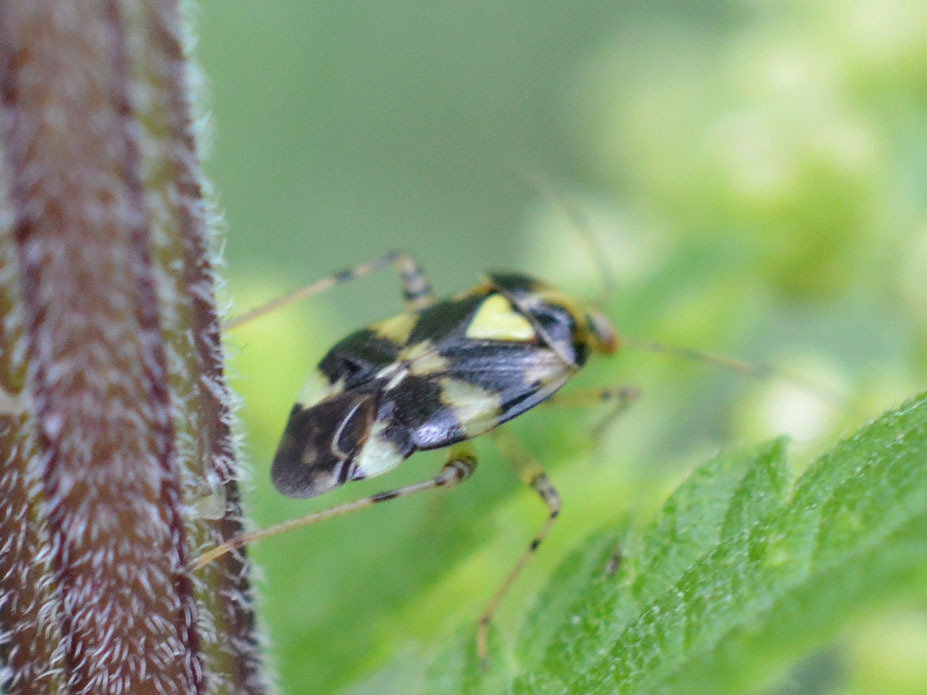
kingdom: Animalia
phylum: Arthropoda
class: Insecta
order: Hemiptera
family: Miridae
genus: Liocoris
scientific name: Liocoris tripustulatus
